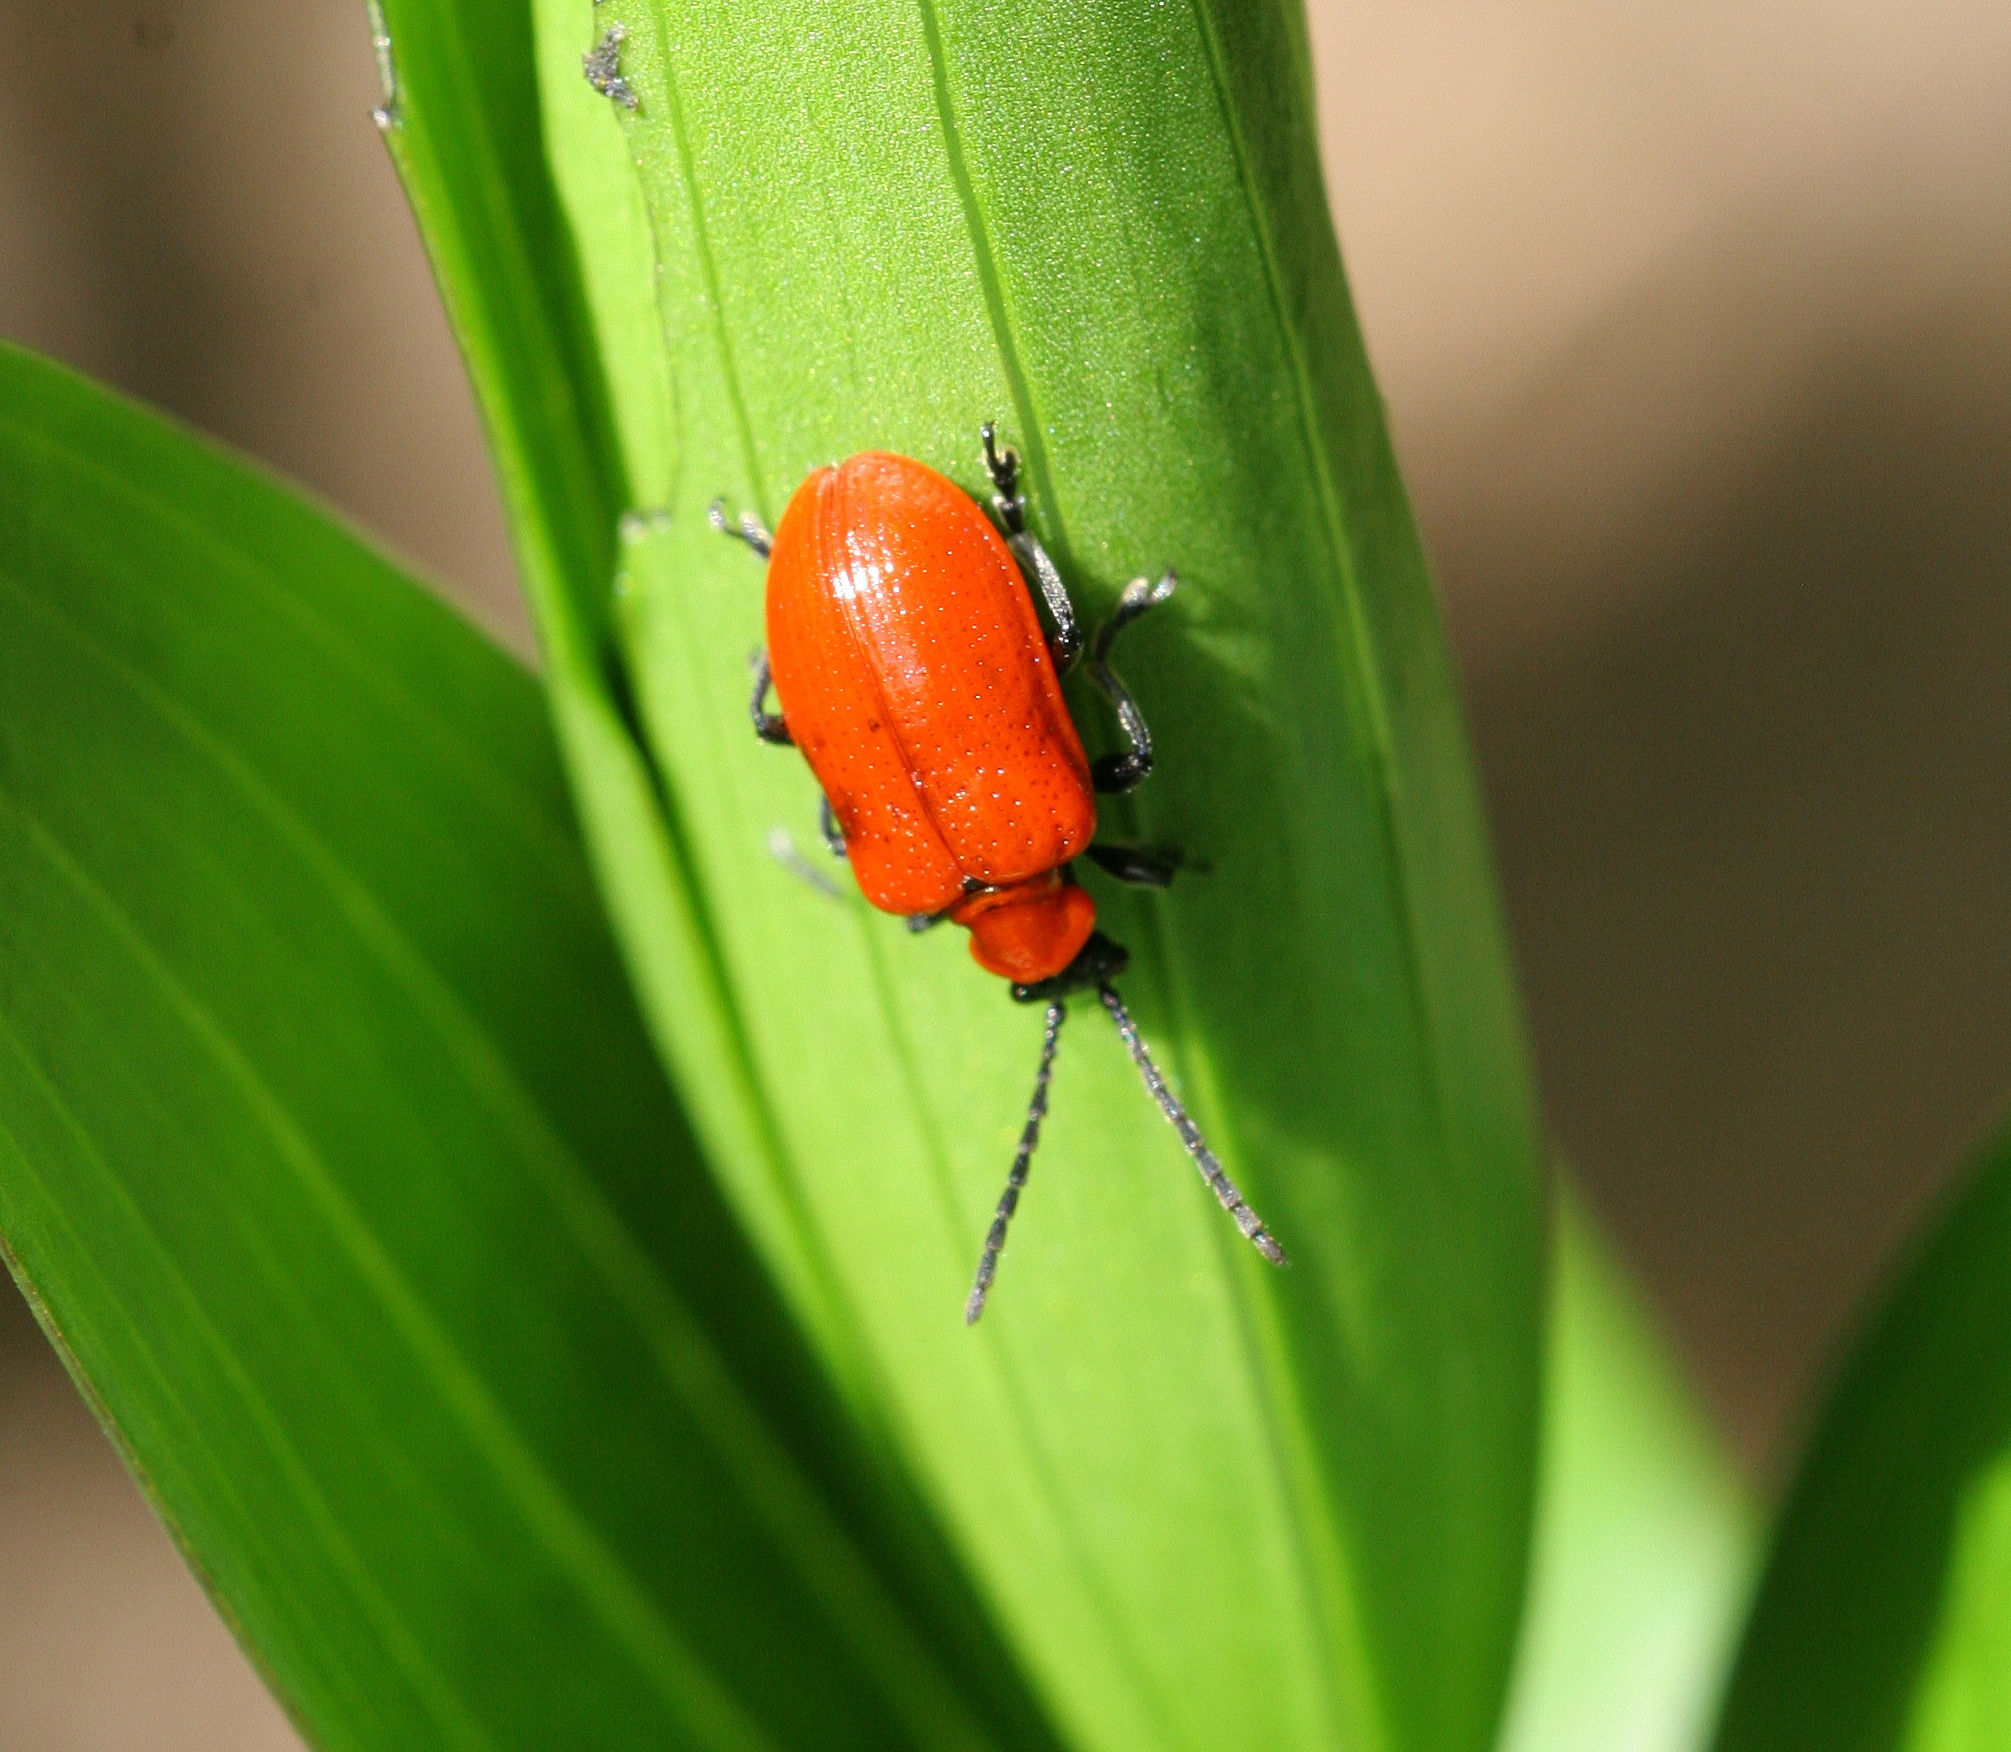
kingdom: Animalia
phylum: Arthropoda
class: Insecta
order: Coleoptera
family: Chrysomelidae
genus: Lilioceris
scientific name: Lilioceris lilii
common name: Lily beetle
